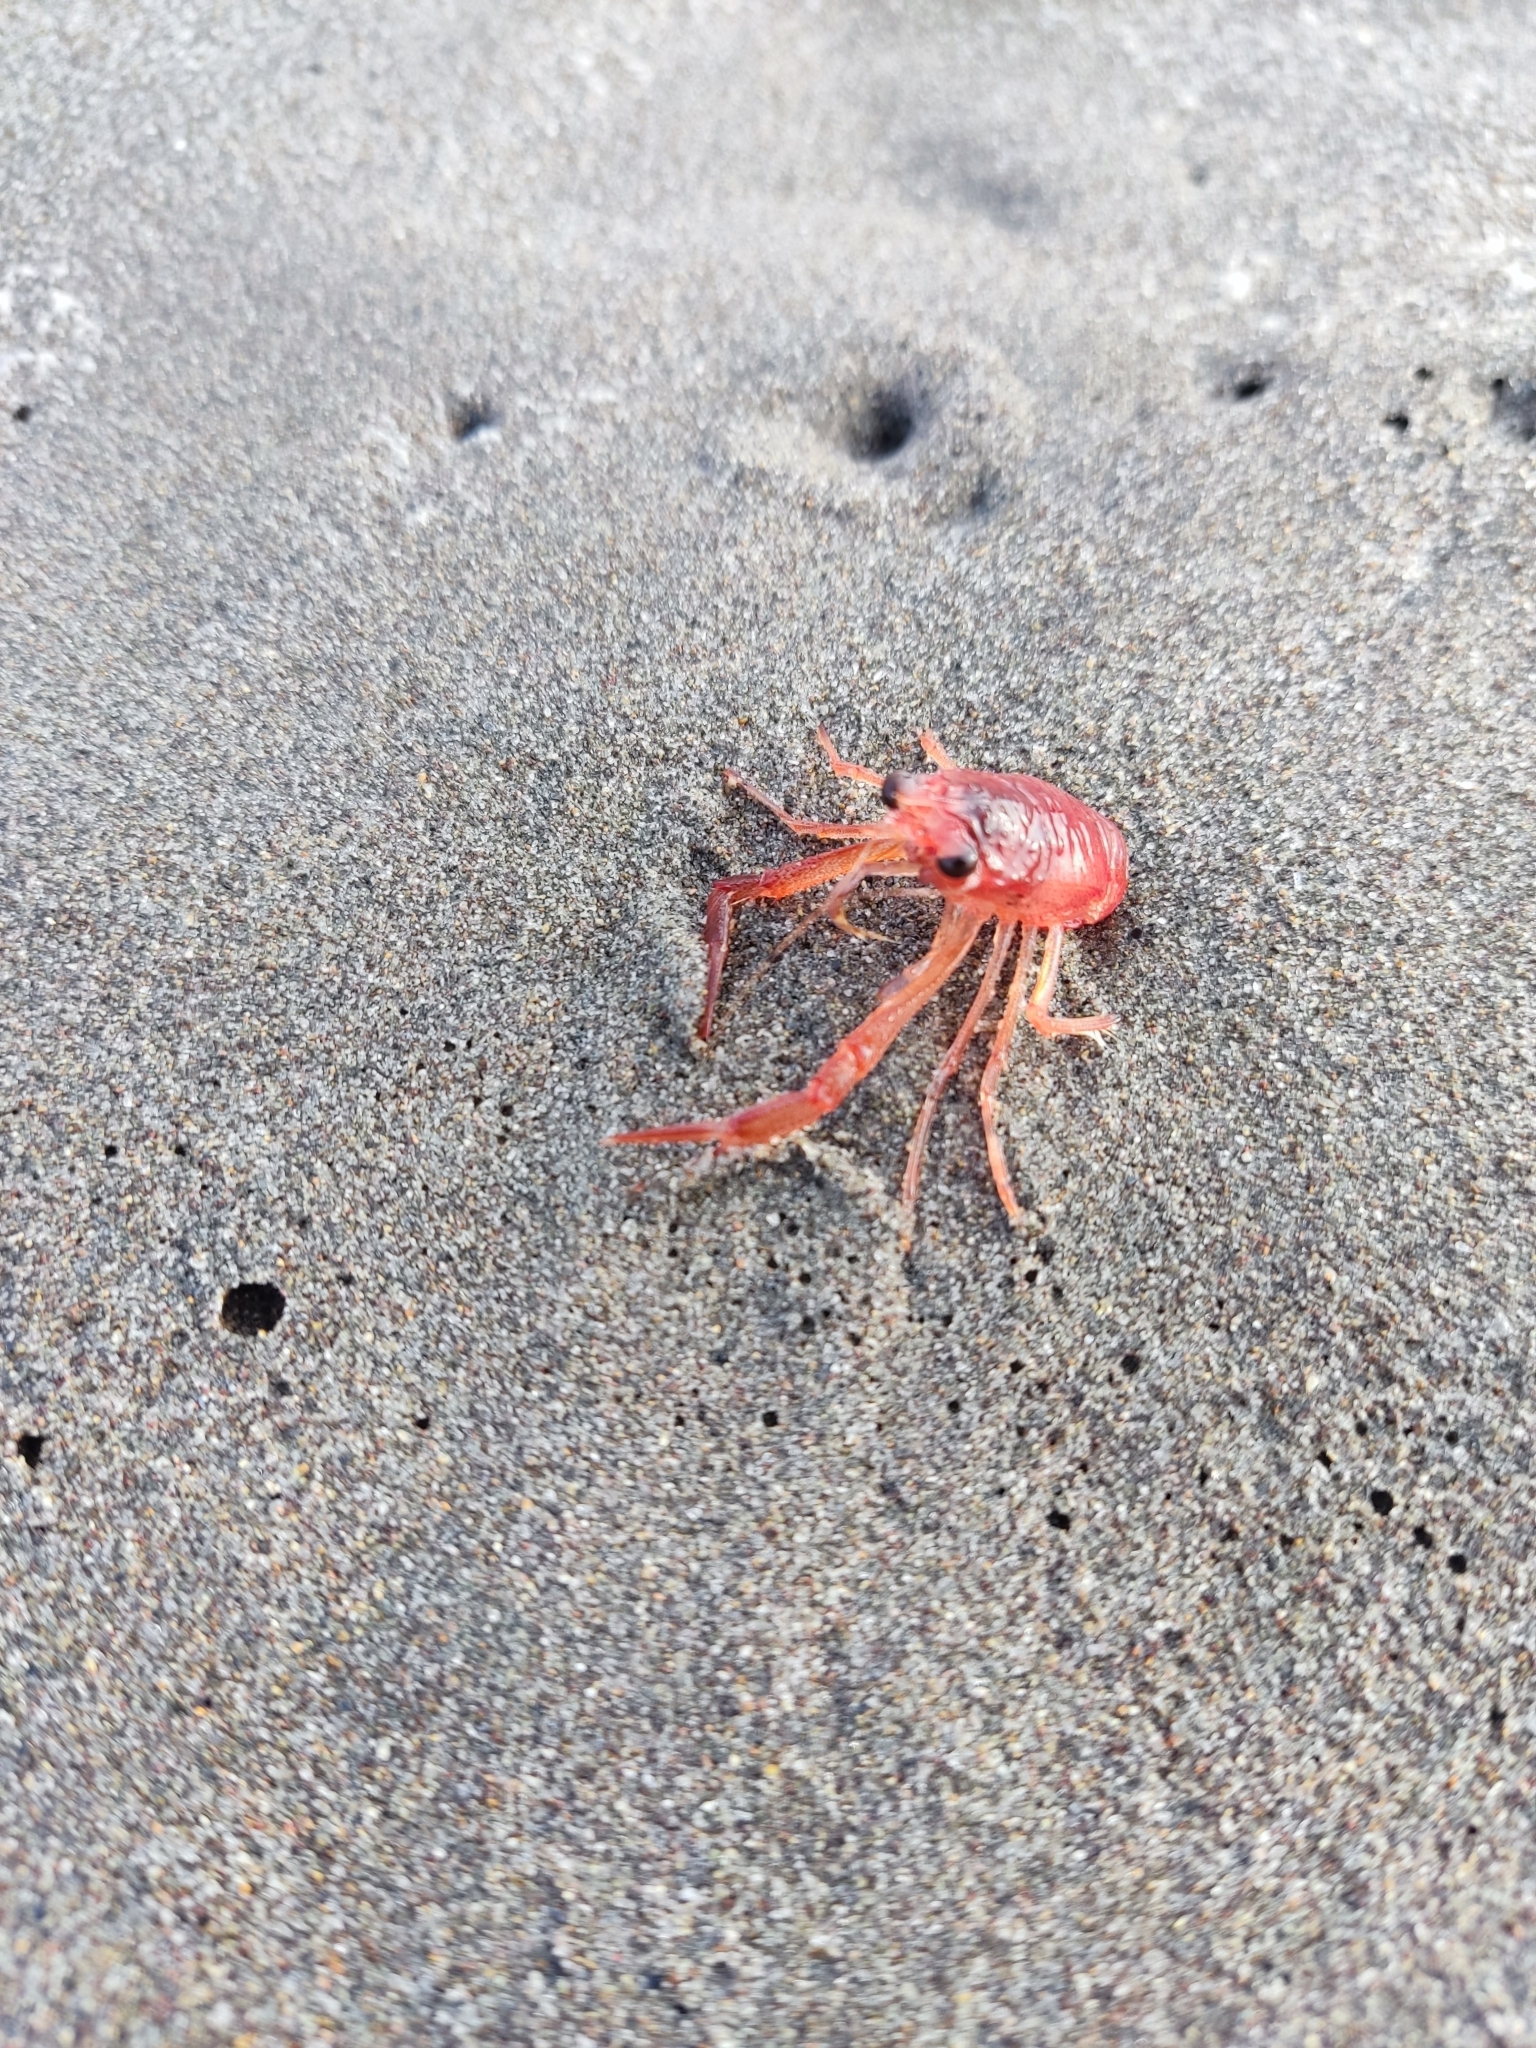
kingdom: Animalia
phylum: Arthropoda
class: Malacostraca
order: Decapoda
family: Munididae
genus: Grimothea
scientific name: Grimothea monodon
